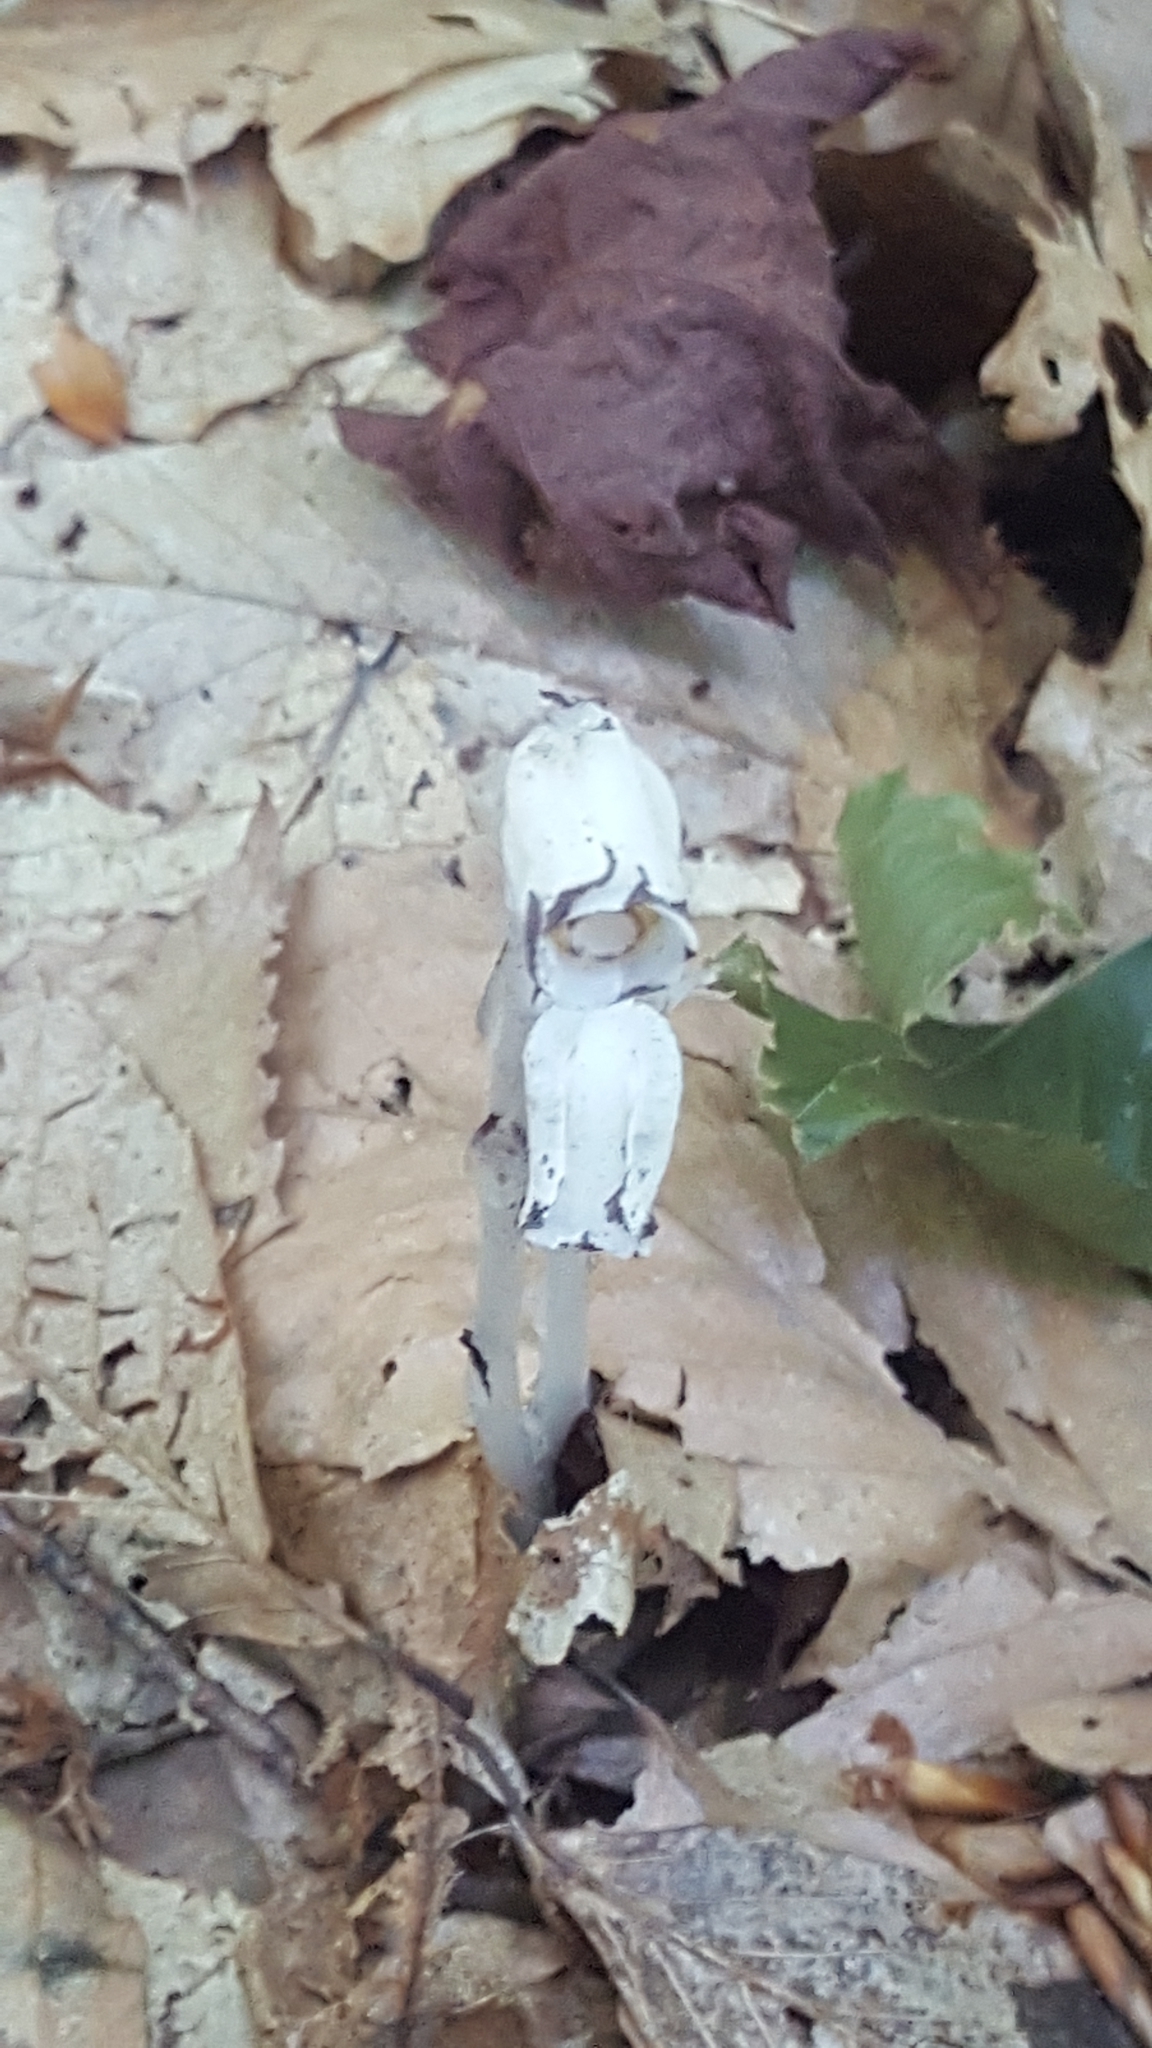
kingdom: Plantae
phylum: Tracheophyta
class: Magnoliopsida
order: Ericales
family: Ericaceae
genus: Monotropa
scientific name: Monotropa uniflora
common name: Convulsion root
